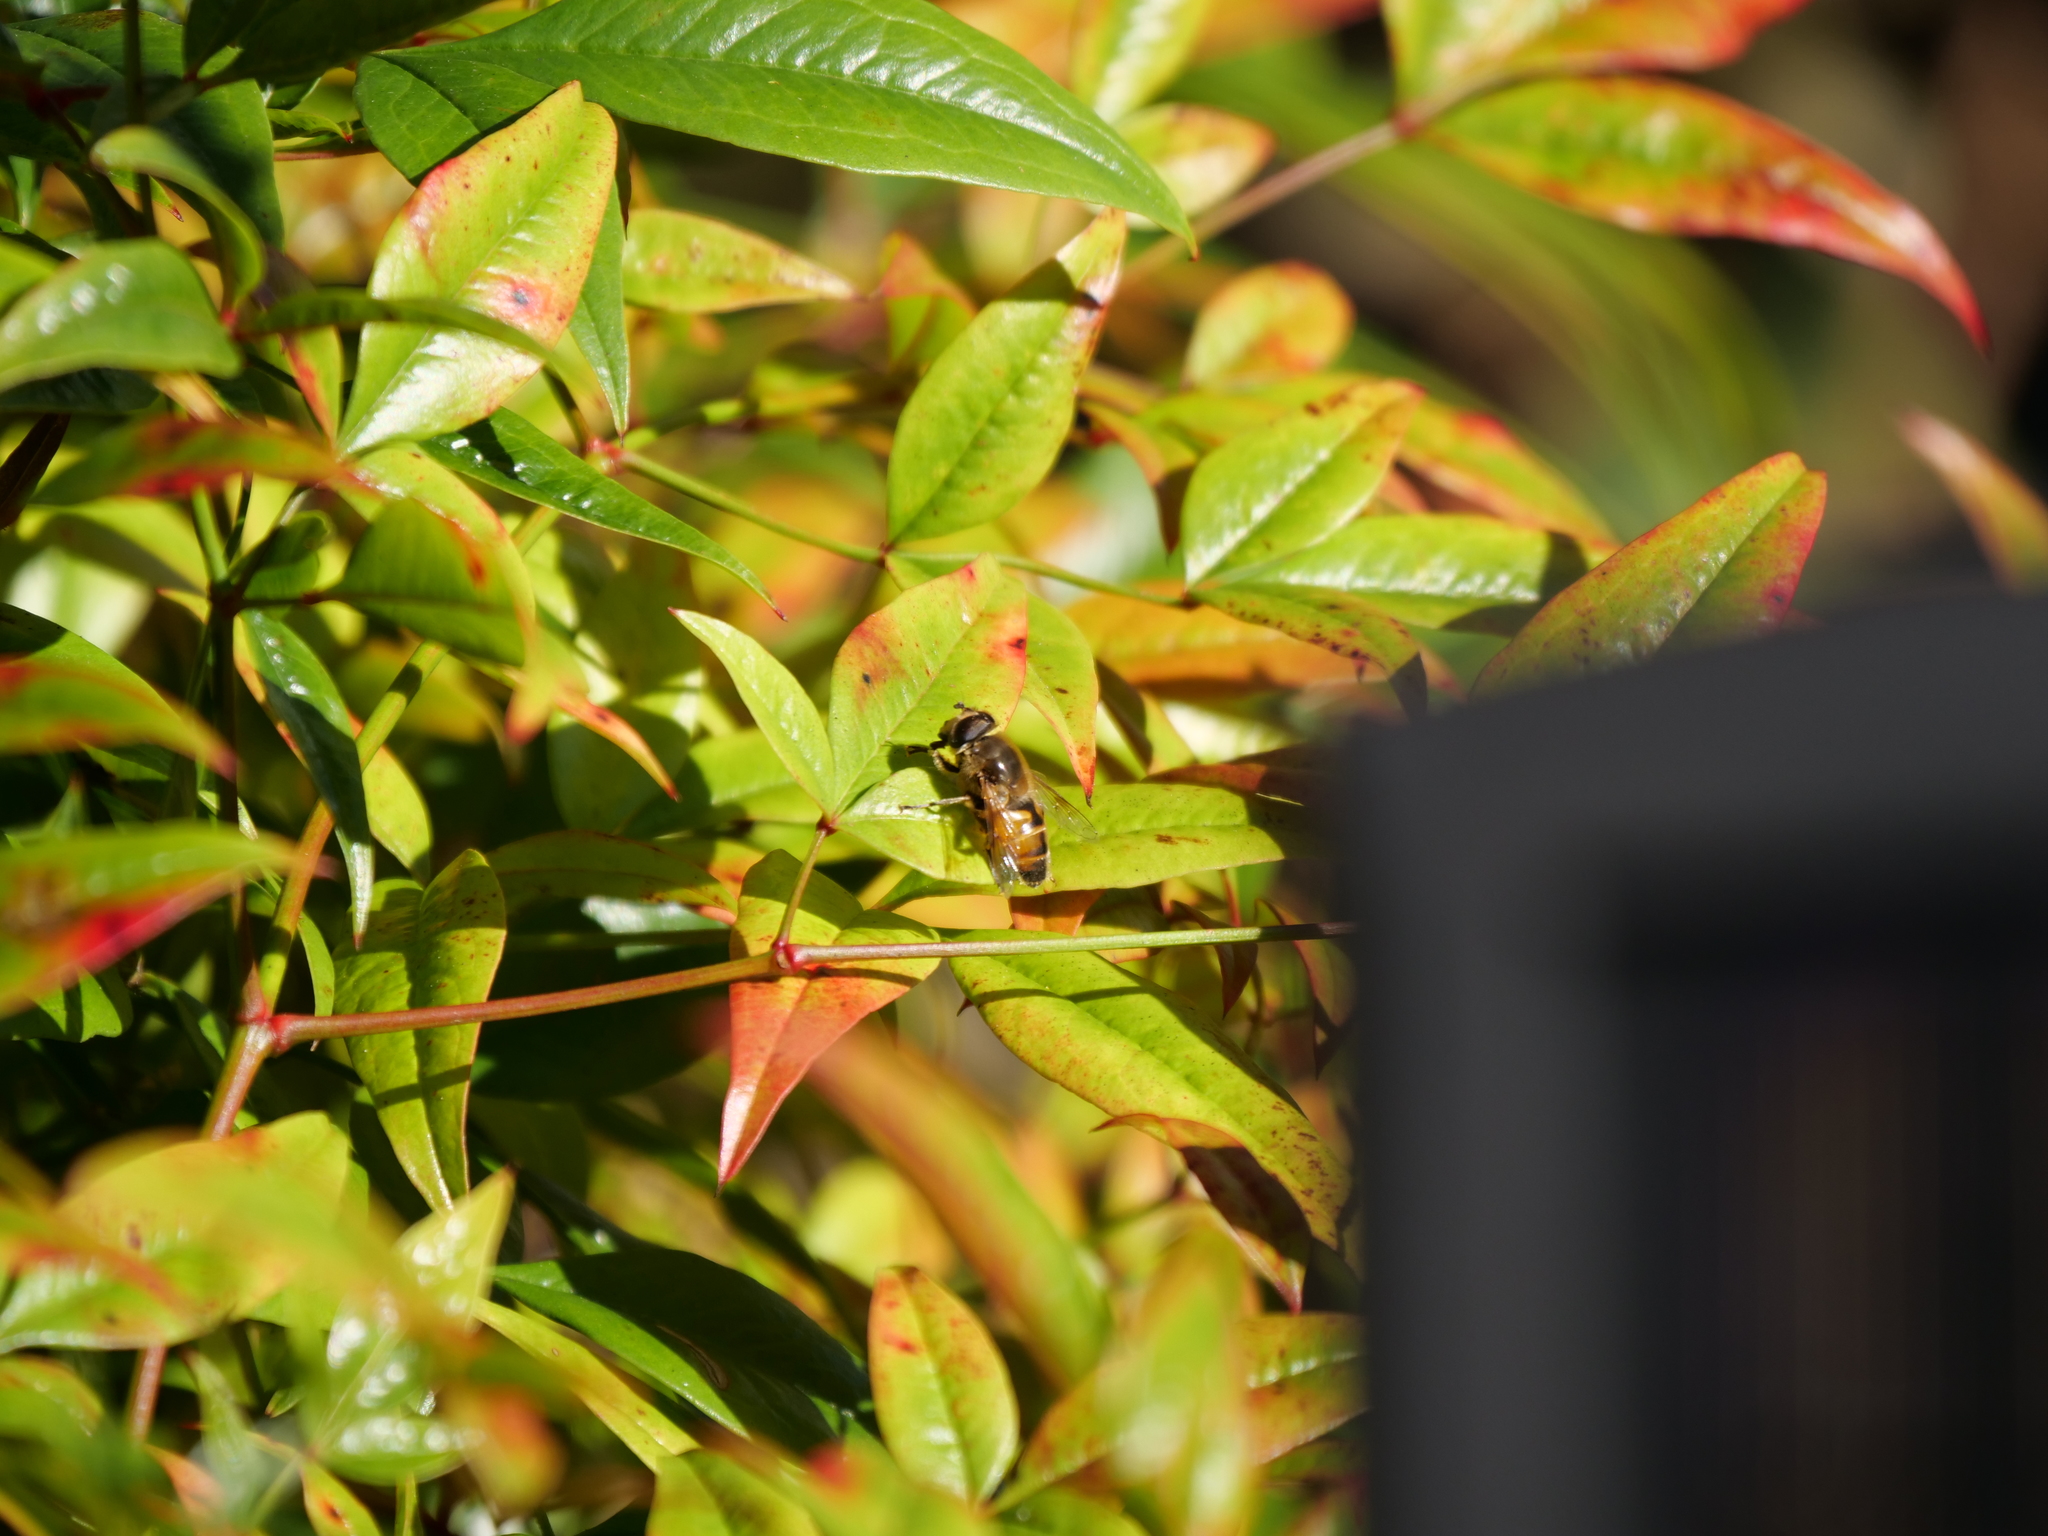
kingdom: Animalia
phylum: Arthropoda
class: Insecta
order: Diptera
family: Syrphidae
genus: Eristalis
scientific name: Eristalis tenax
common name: Drone fly
